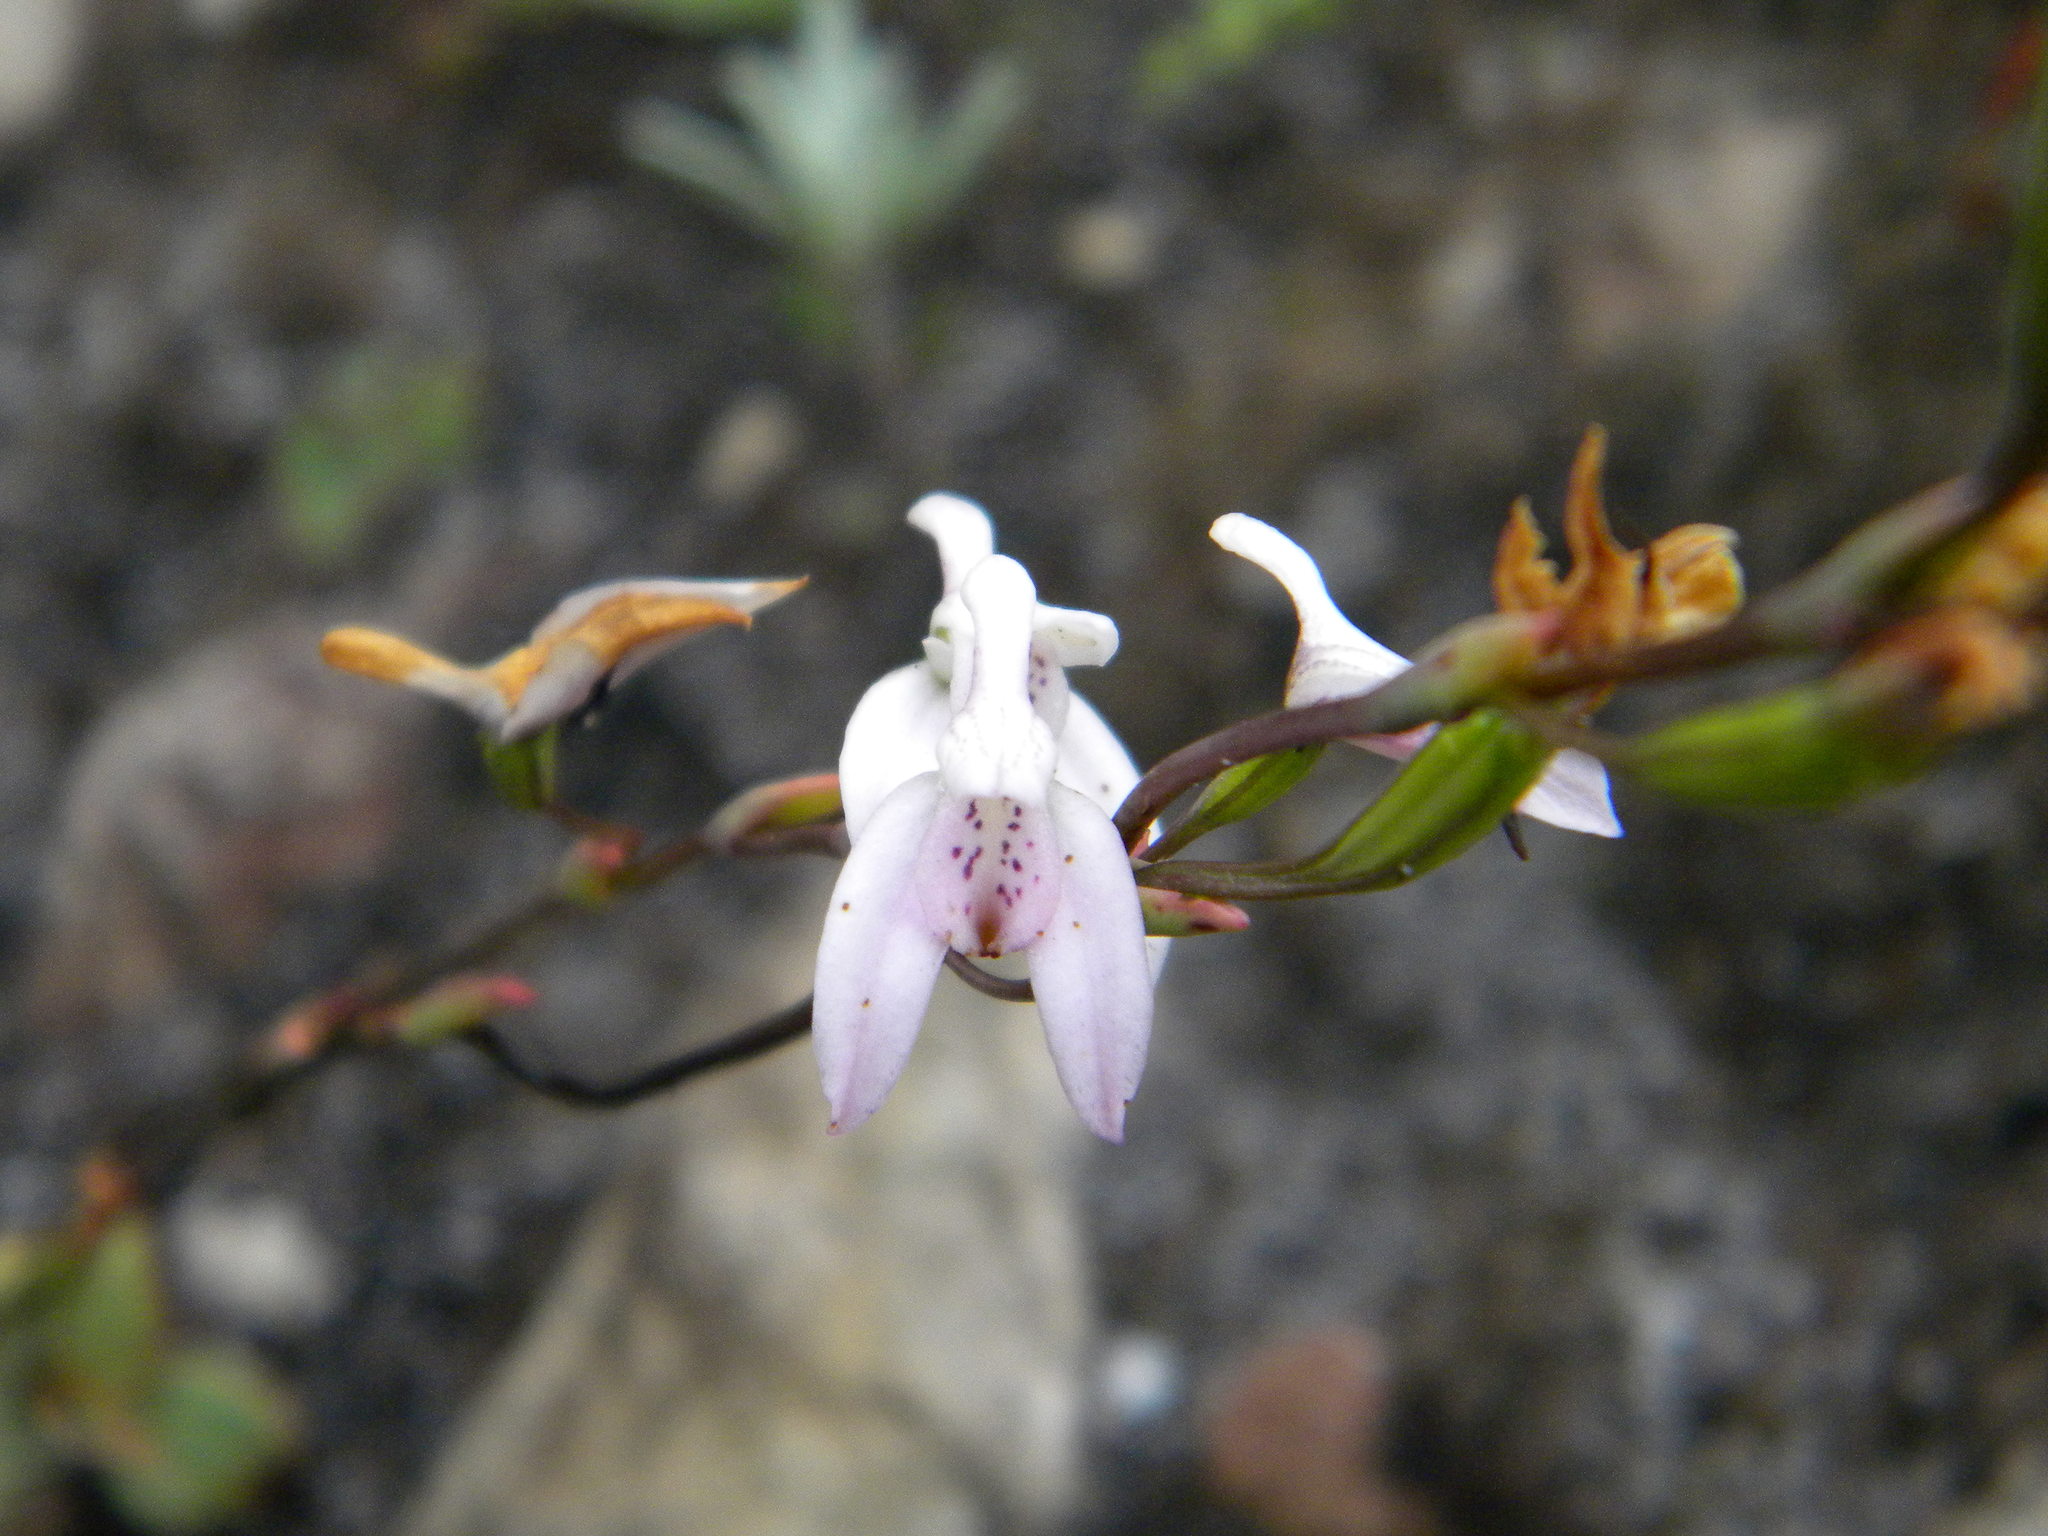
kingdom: Plantae
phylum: Tracheophyta
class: Liliopsida
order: Asparagales
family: Orchidaceae
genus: Disa
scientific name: Disa obliqua
